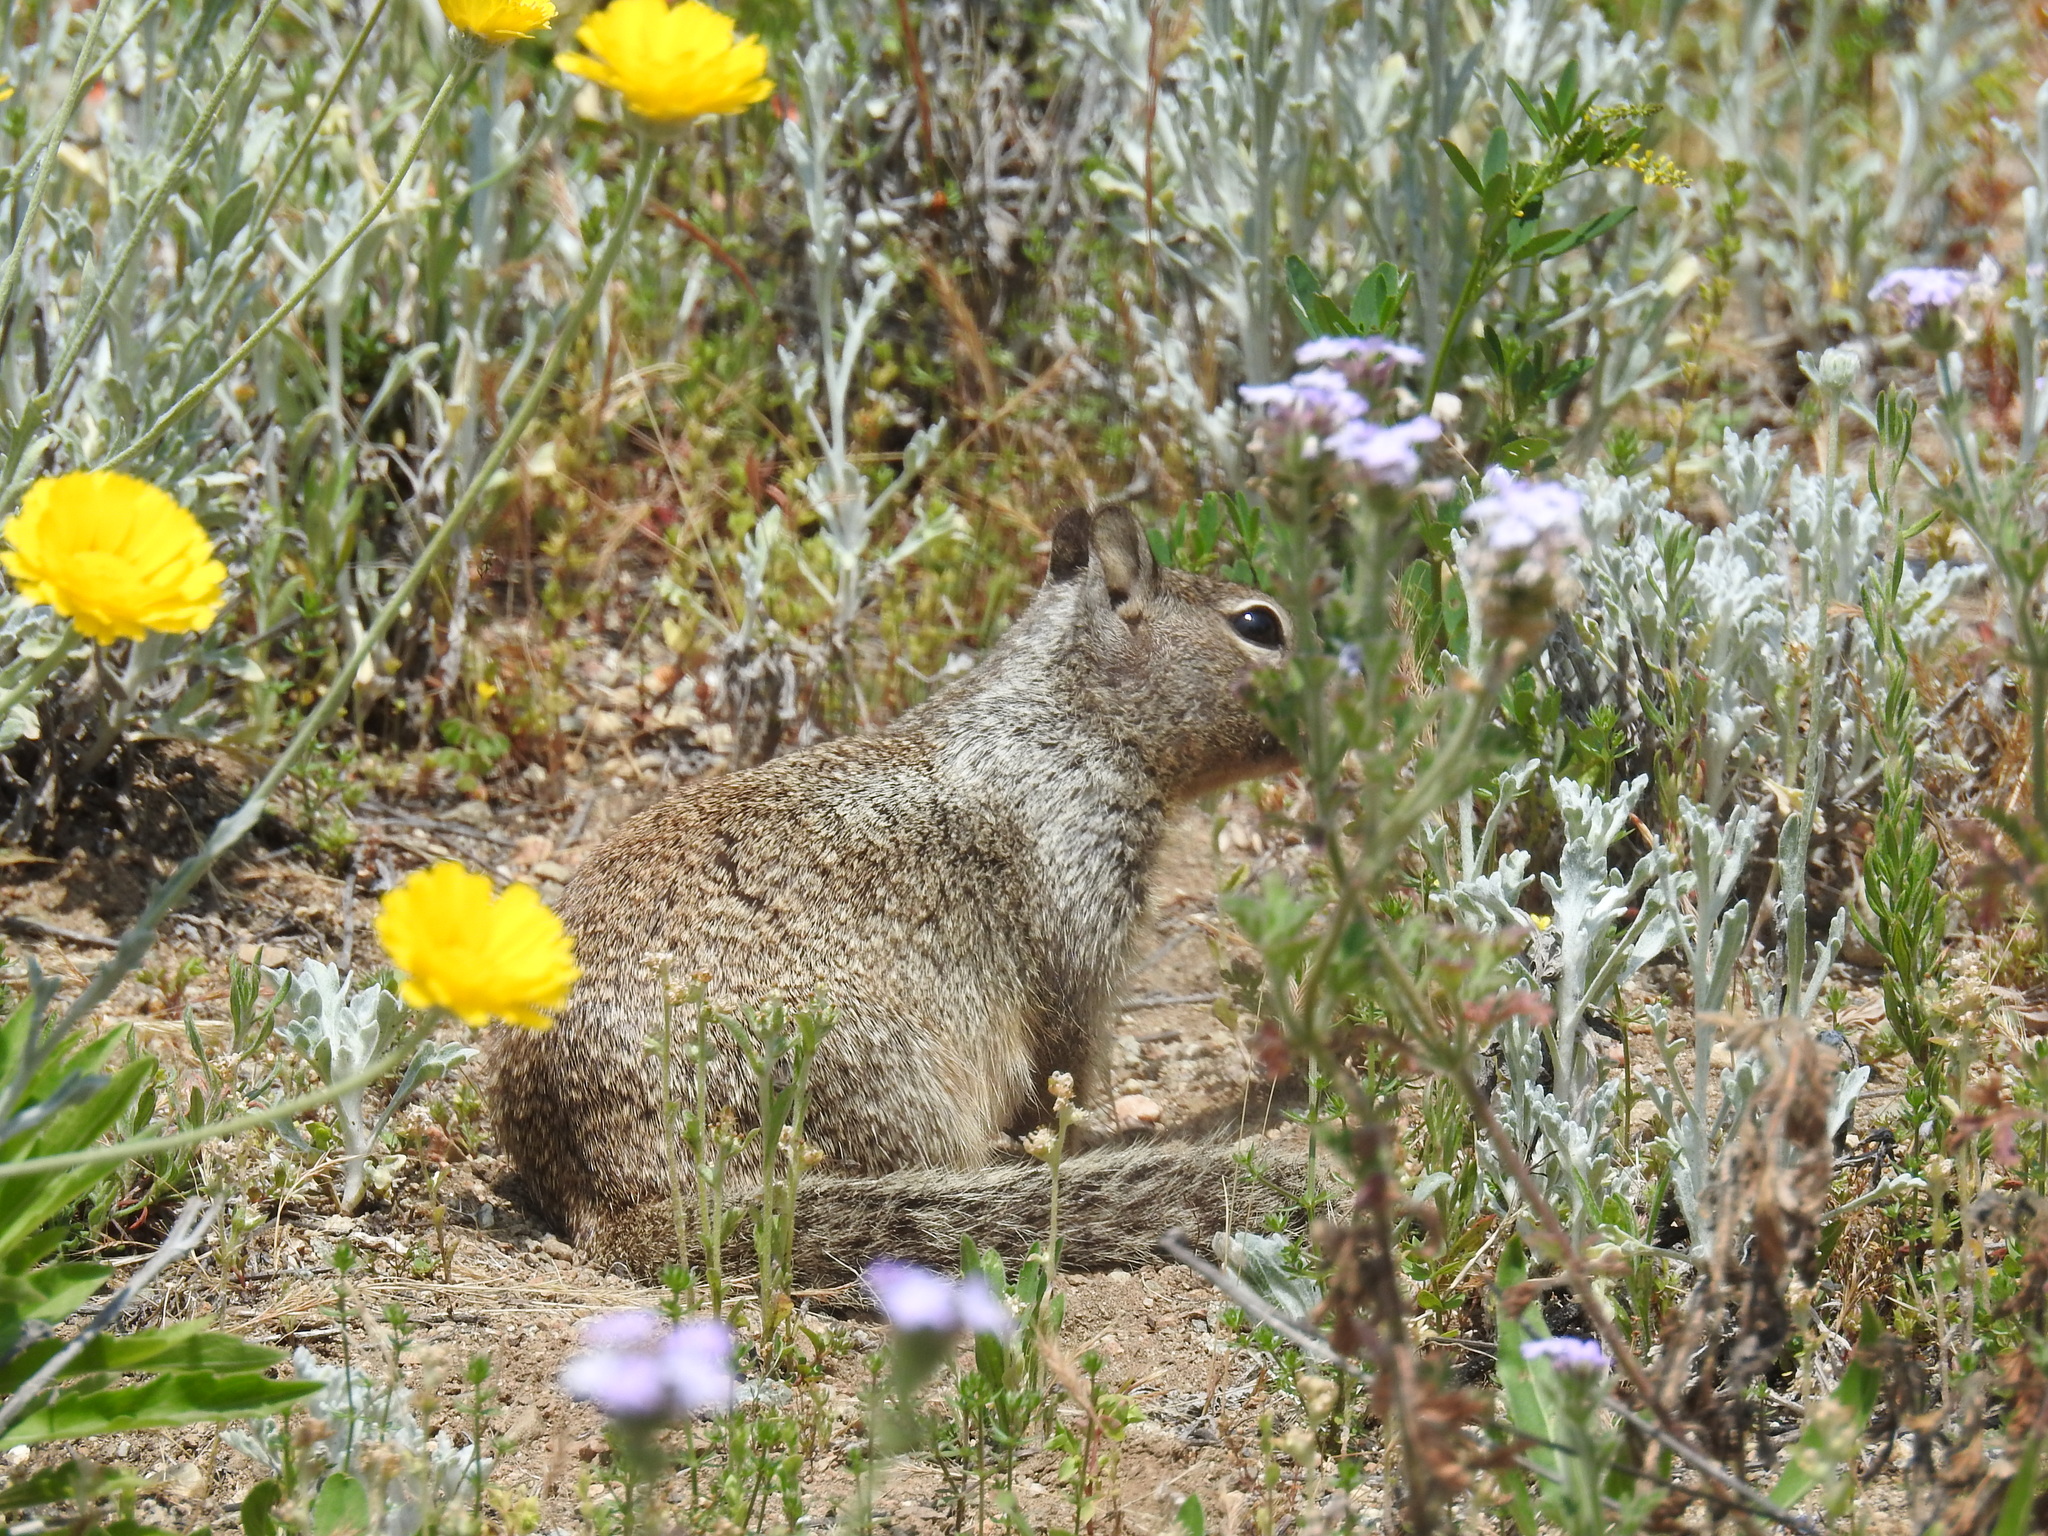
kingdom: Animalia
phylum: Chordata
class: Mammalia
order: Rodentia
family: Sciuridae
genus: Otospermophilus
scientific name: Otospermophilus beecheyi
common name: California ground squirrel
